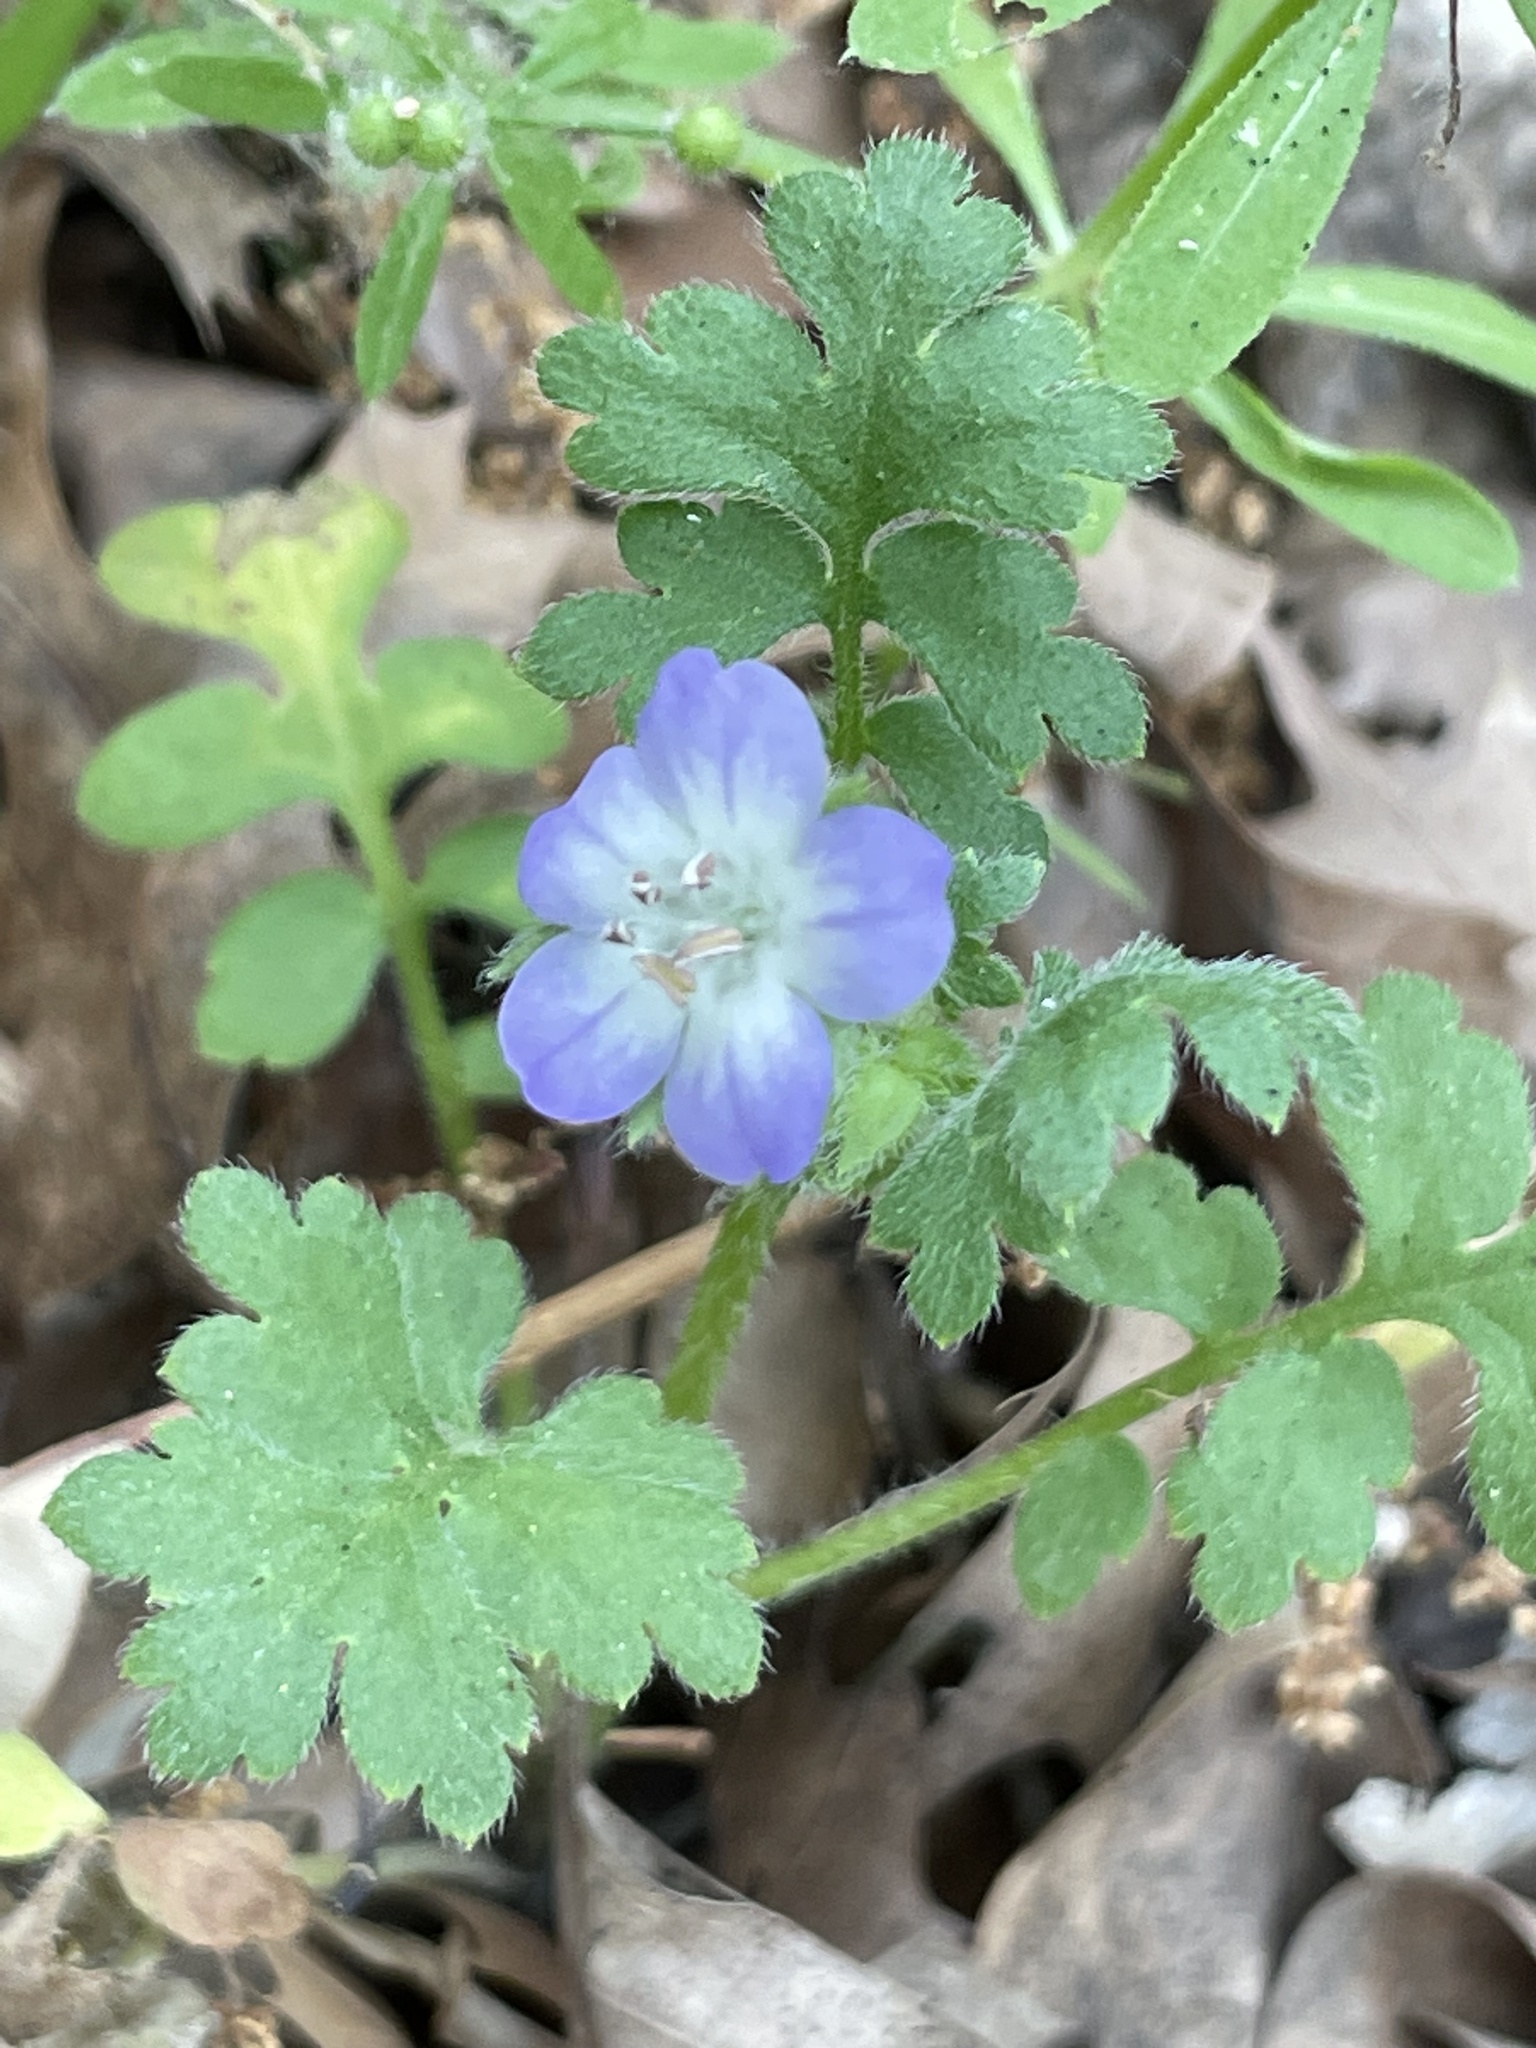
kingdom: Plantae
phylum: Tracheophyta
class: Magnoliopsida
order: Boraginales
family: Hydrophyllaceae
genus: Nemophila
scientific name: Nemophila phacelioides
